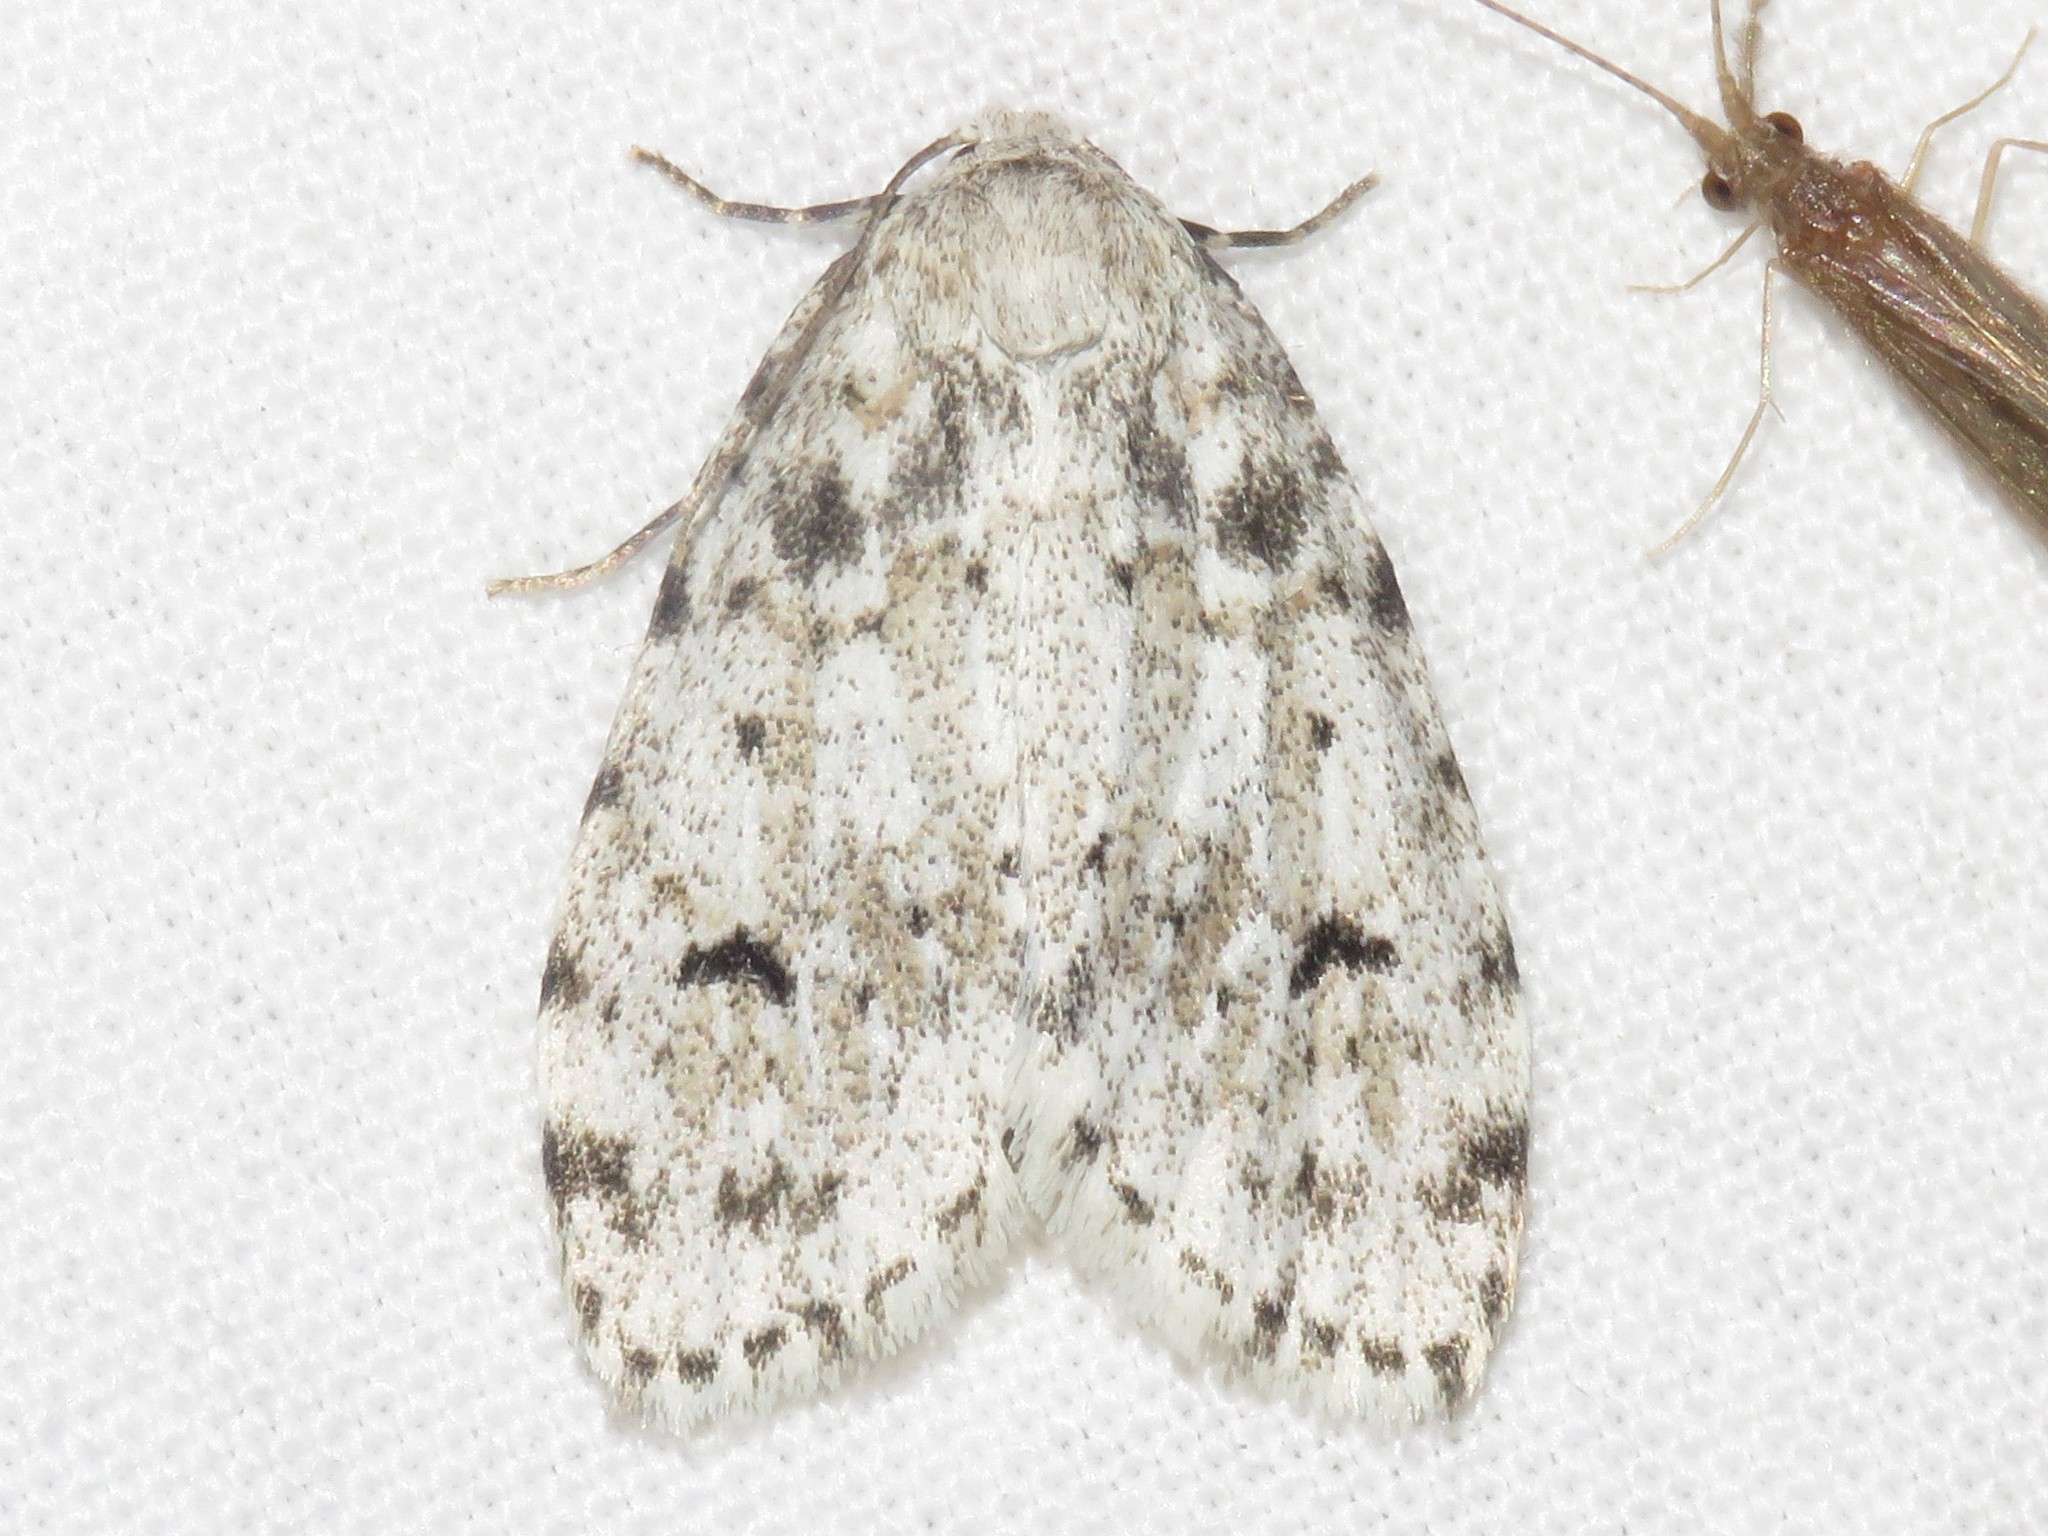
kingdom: Animalia
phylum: Arthropoda
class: Insecta
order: Lepidoptera
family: Erebidae
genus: Clemensia
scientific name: Clemensia albata
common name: Little white lichen moth
